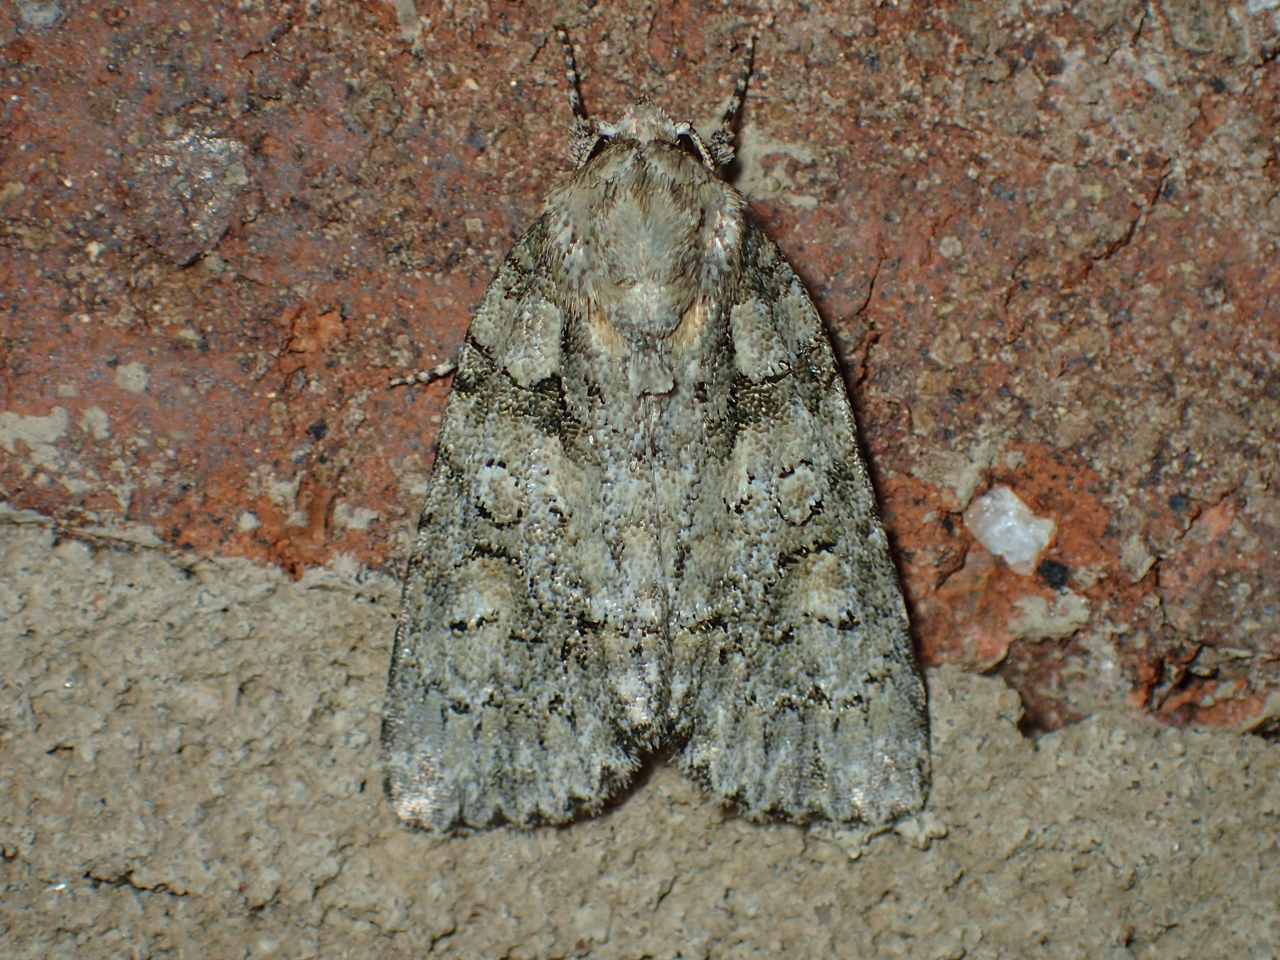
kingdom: Animalia
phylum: Arthropoda
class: Insecta
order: Lepidoptera
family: Noctuidae
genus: Acronicta
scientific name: Acronicta ovata
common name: Epauleted oak dagger
